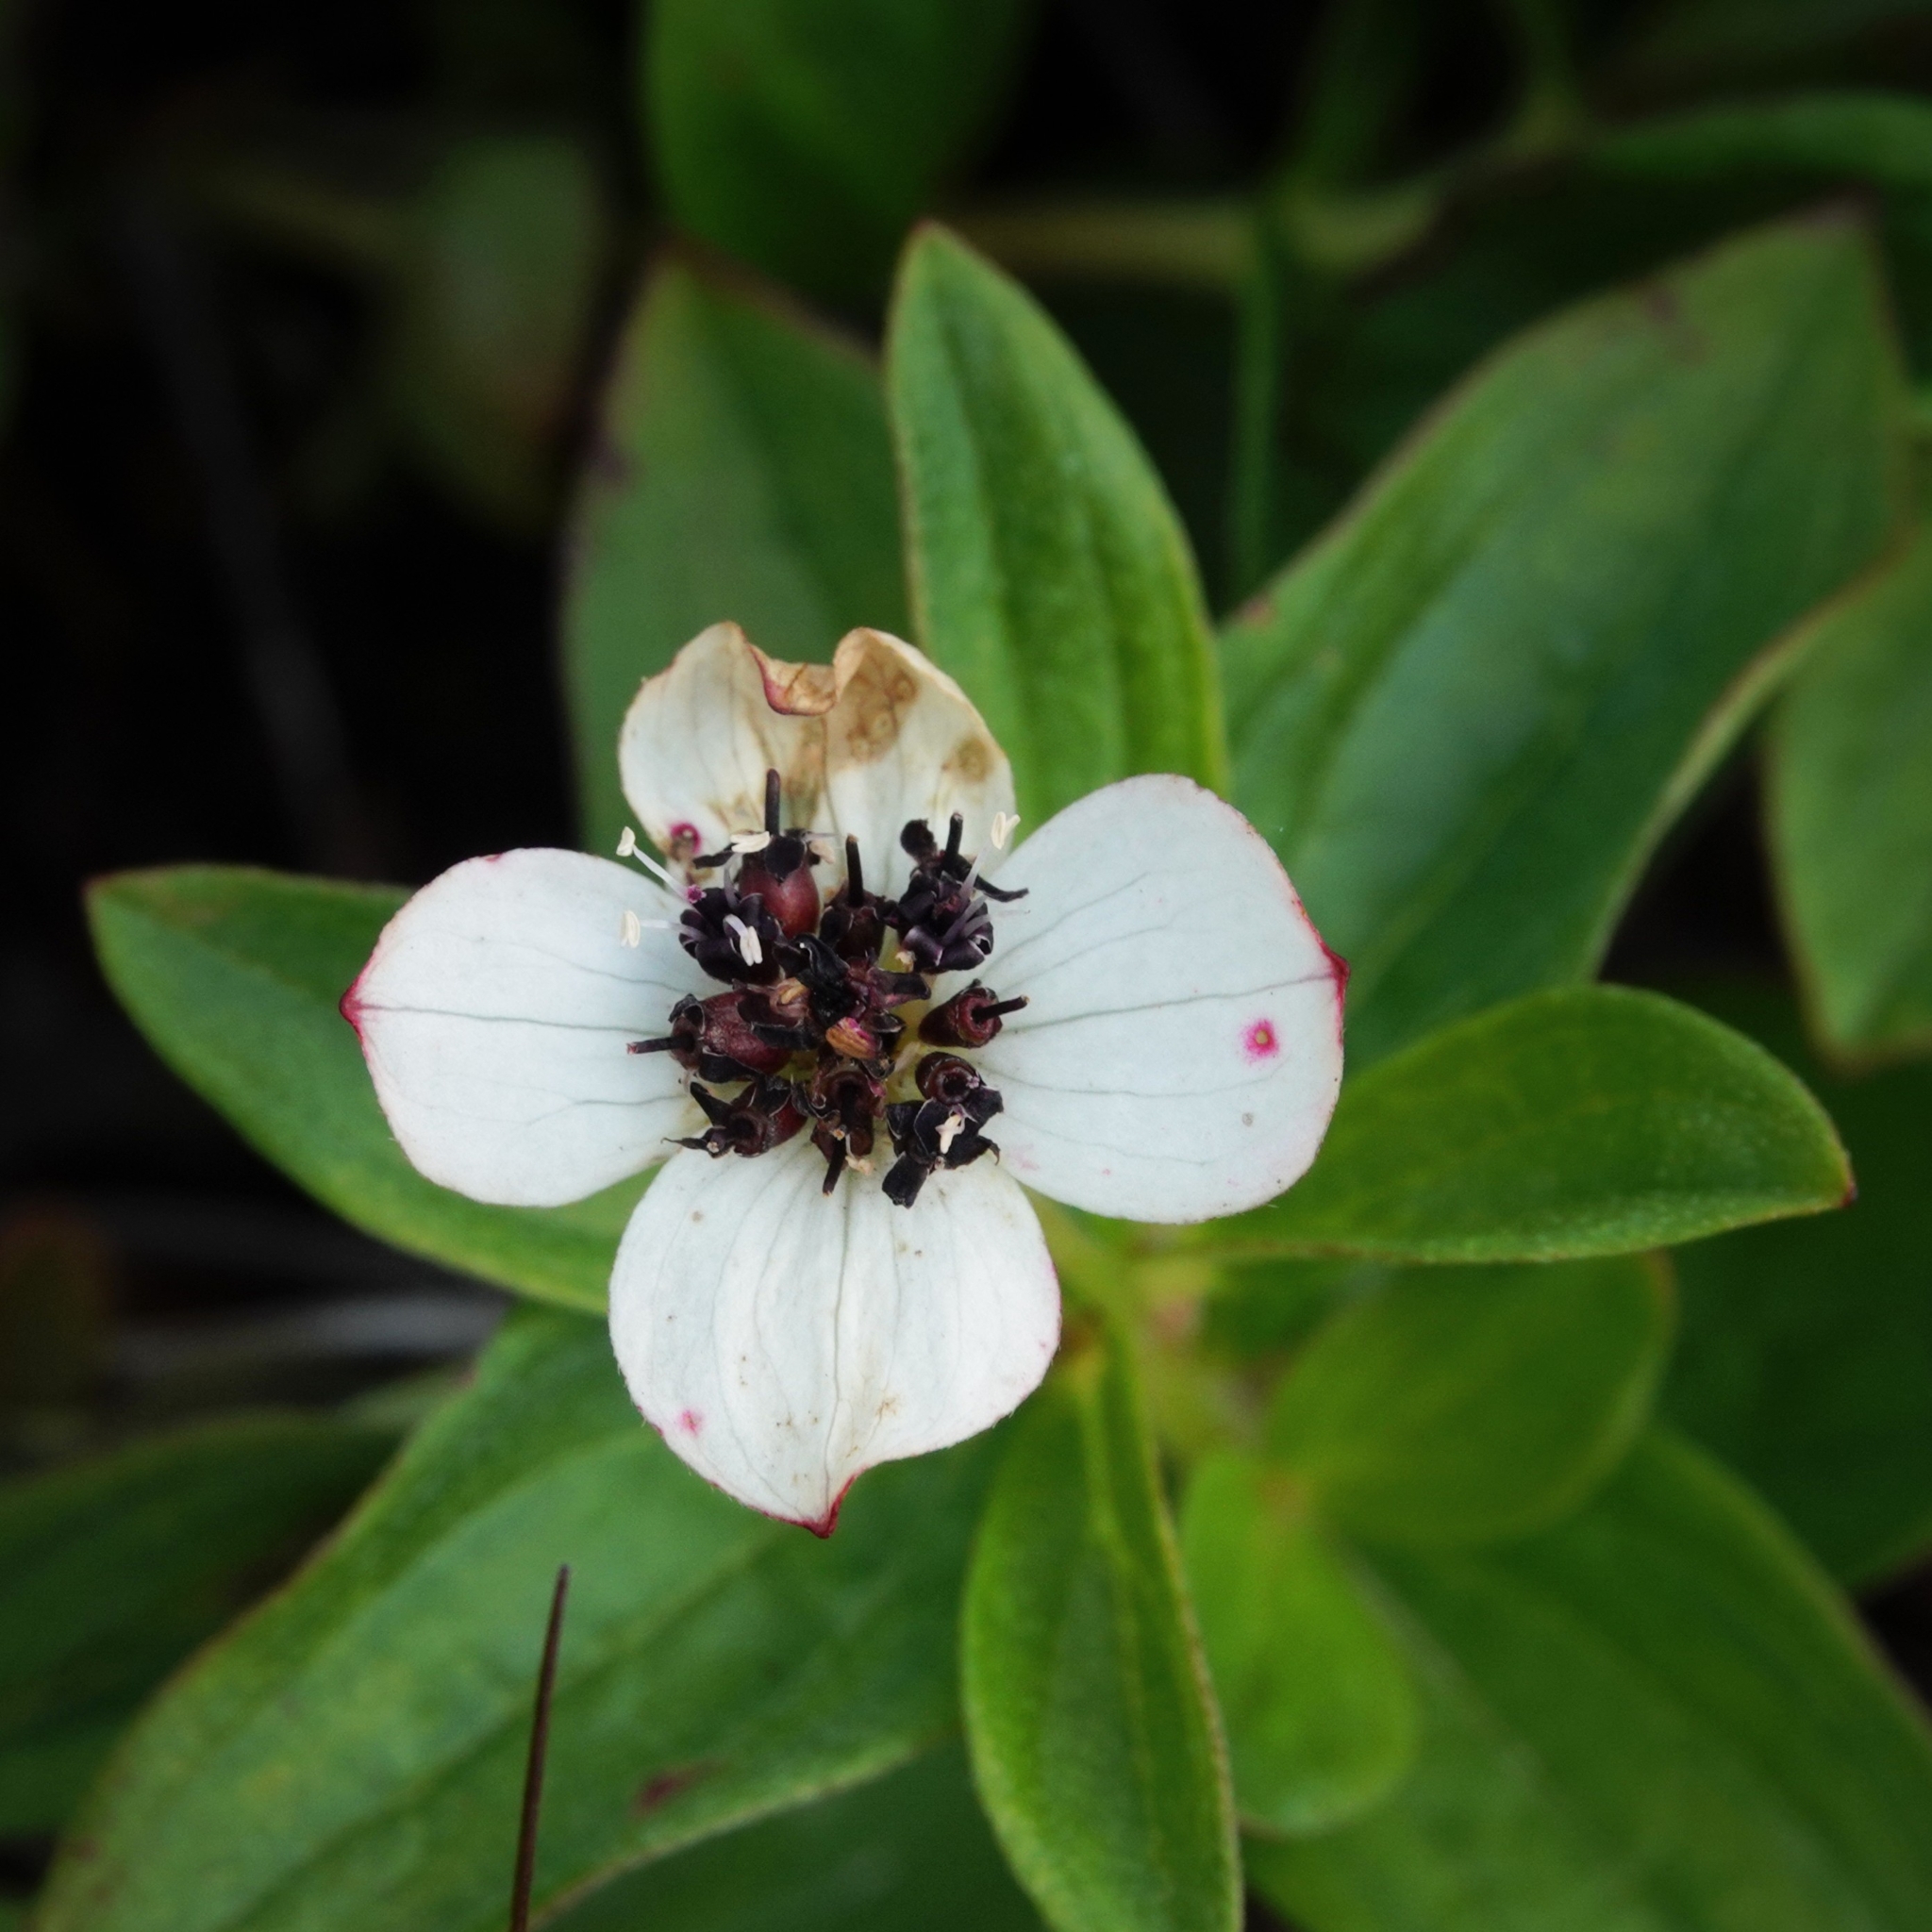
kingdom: Plantae
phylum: Tracheophyta
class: Magnoliopsida
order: Cornales
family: Cornaceae
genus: Cornus
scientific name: Cornus suecica
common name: Dwarf cornel
